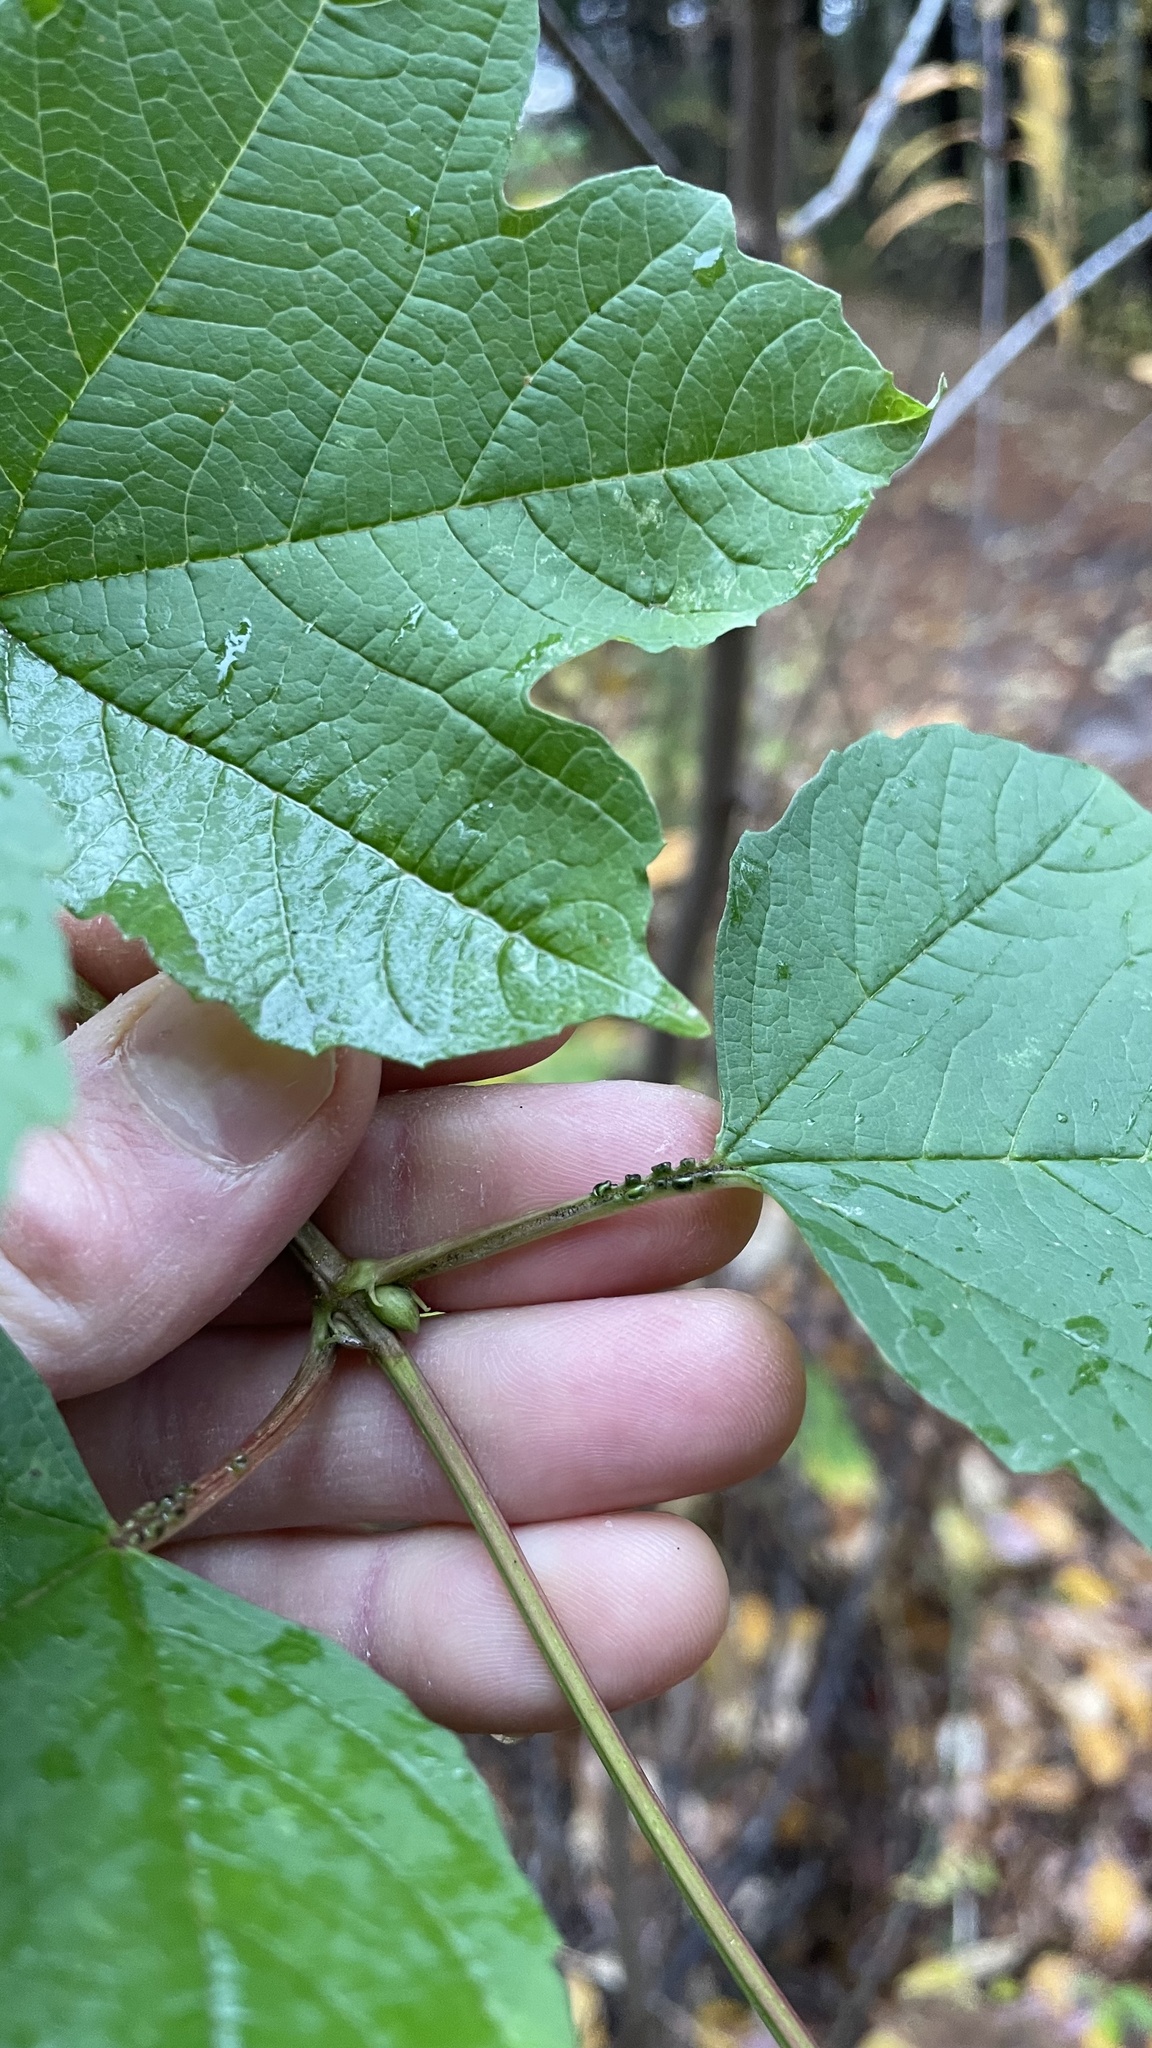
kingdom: Plantae
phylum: Tracheophyta
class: Magnoliopsida
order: Dipsacales
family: Viburnaceae
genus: Viburnum
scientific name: Viburnum opulus
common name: Guelder-rose
